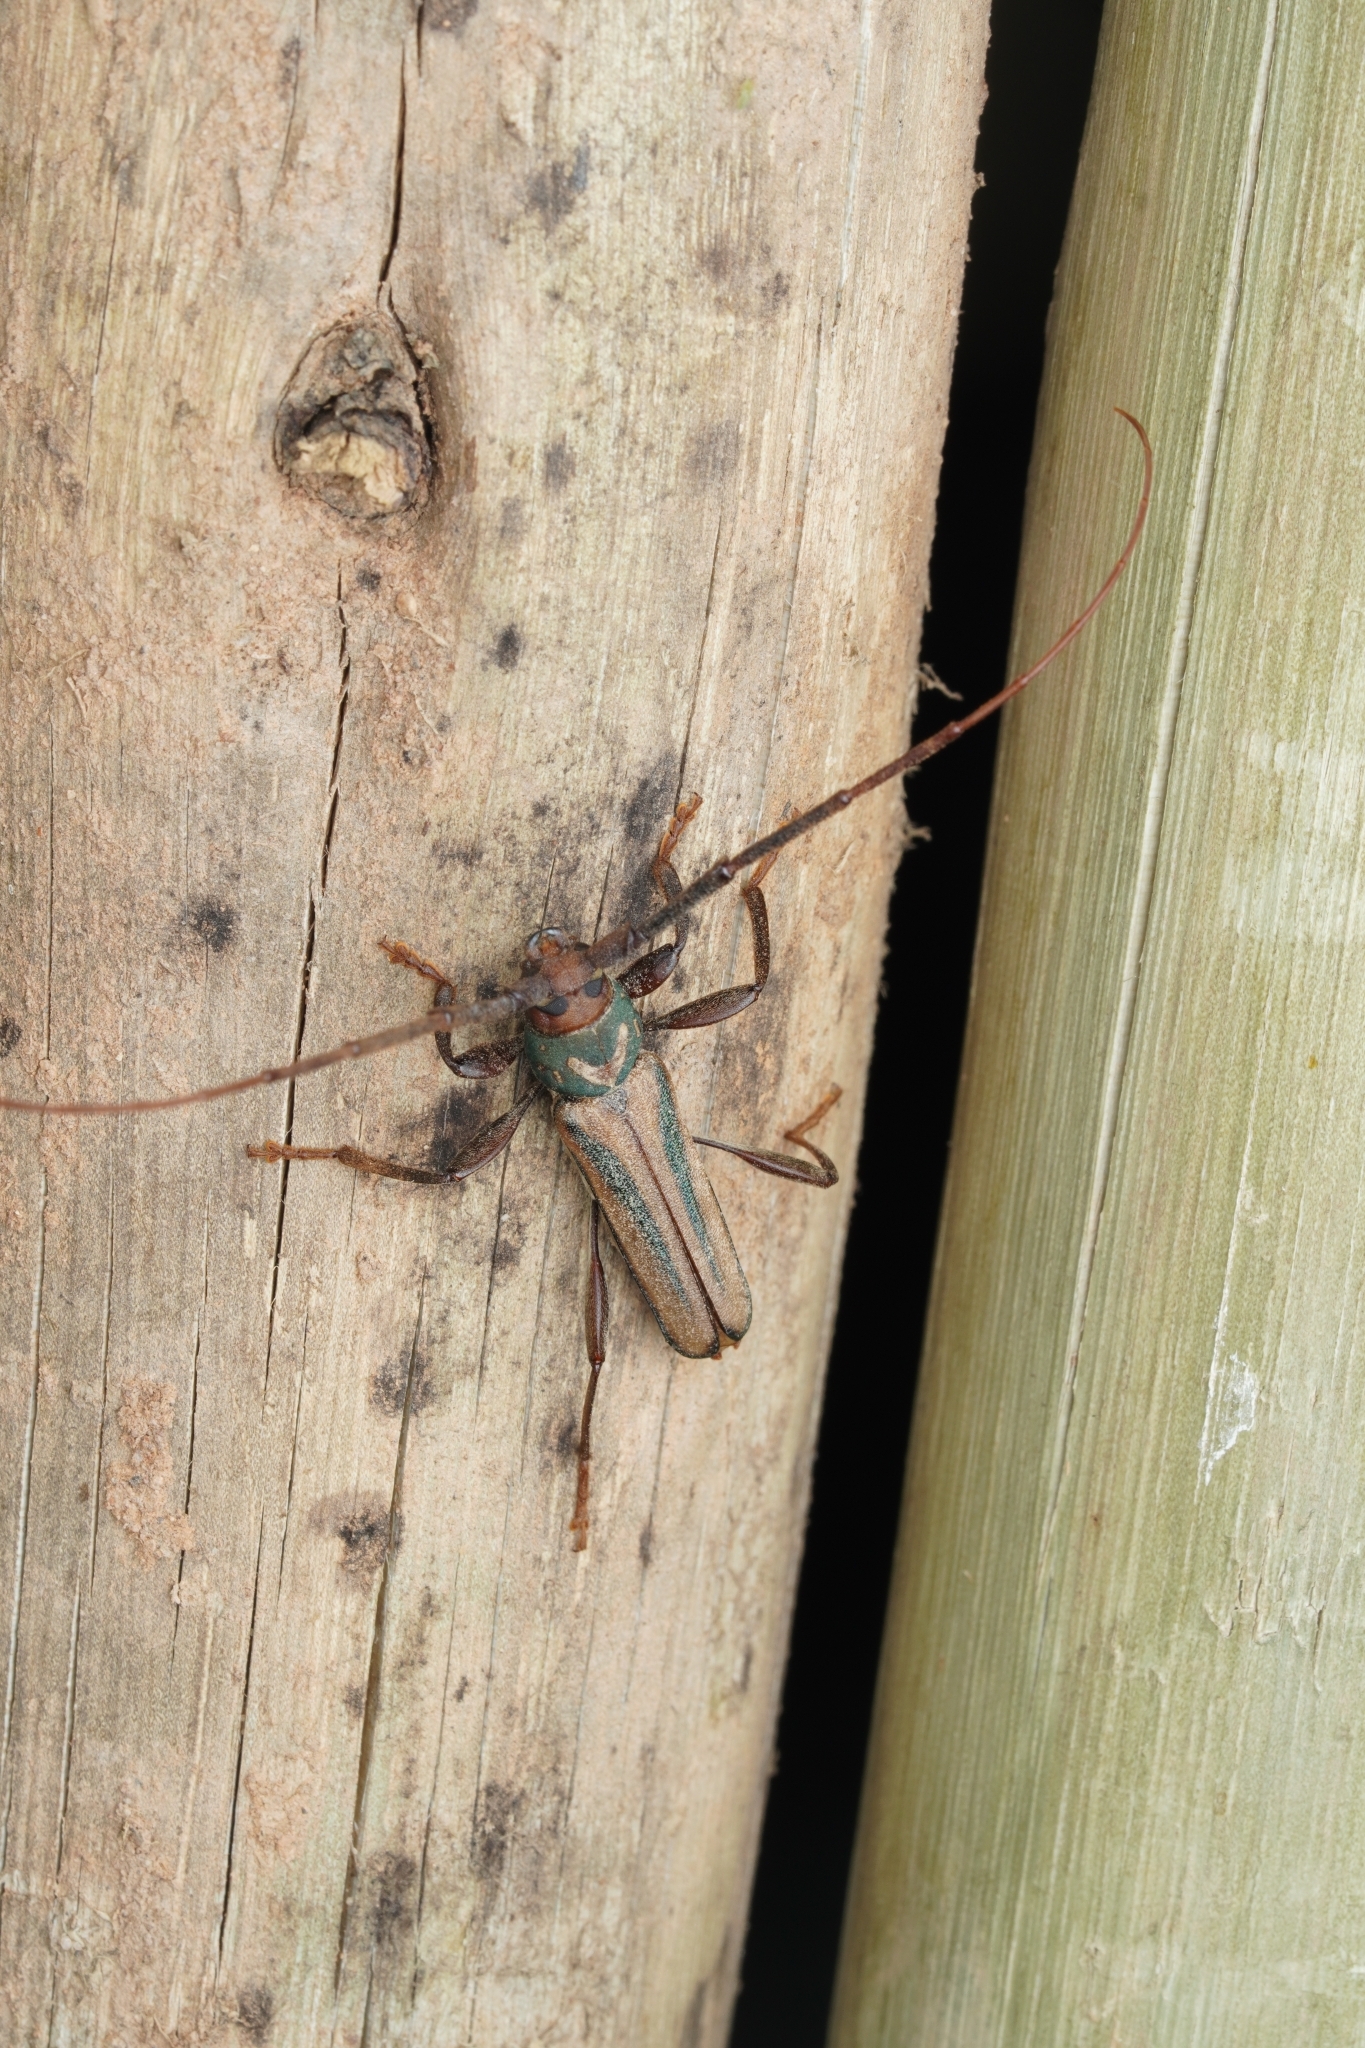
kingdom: Animalia
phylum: Arthropoda
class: Insecta
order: Coleoptera
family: Cerambycidae
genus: Xystrocera
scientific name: Xystrocera dispar
